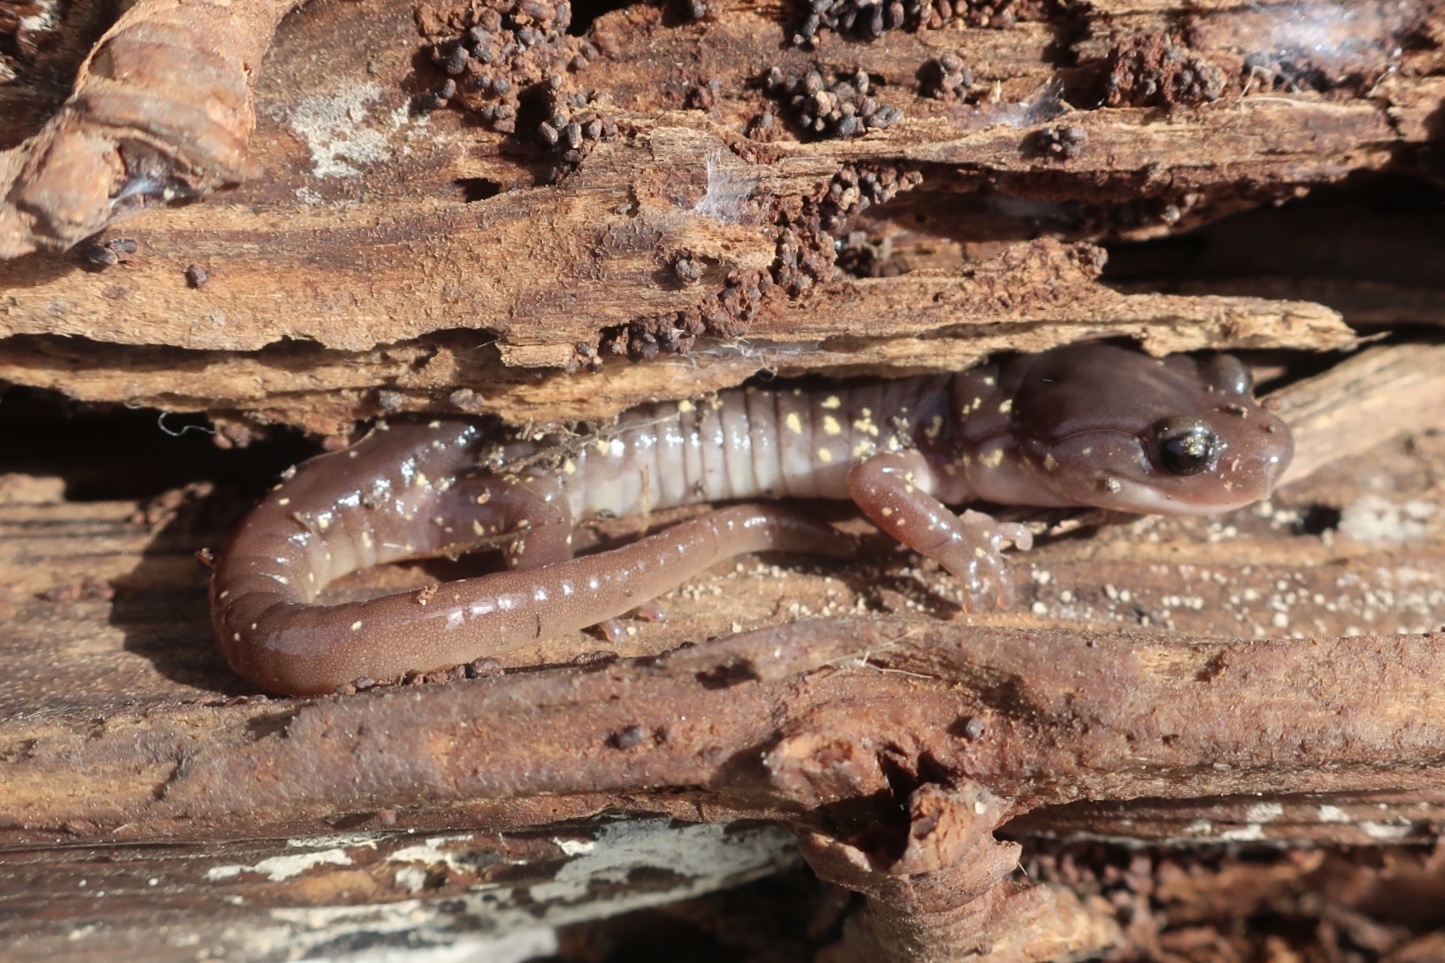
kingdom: Animalia
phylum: Chordata
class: Amphibia
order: Caudata
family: Plethodontidae
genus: Aneides
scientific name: Aneides lugubris
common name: Arboreal salamander
